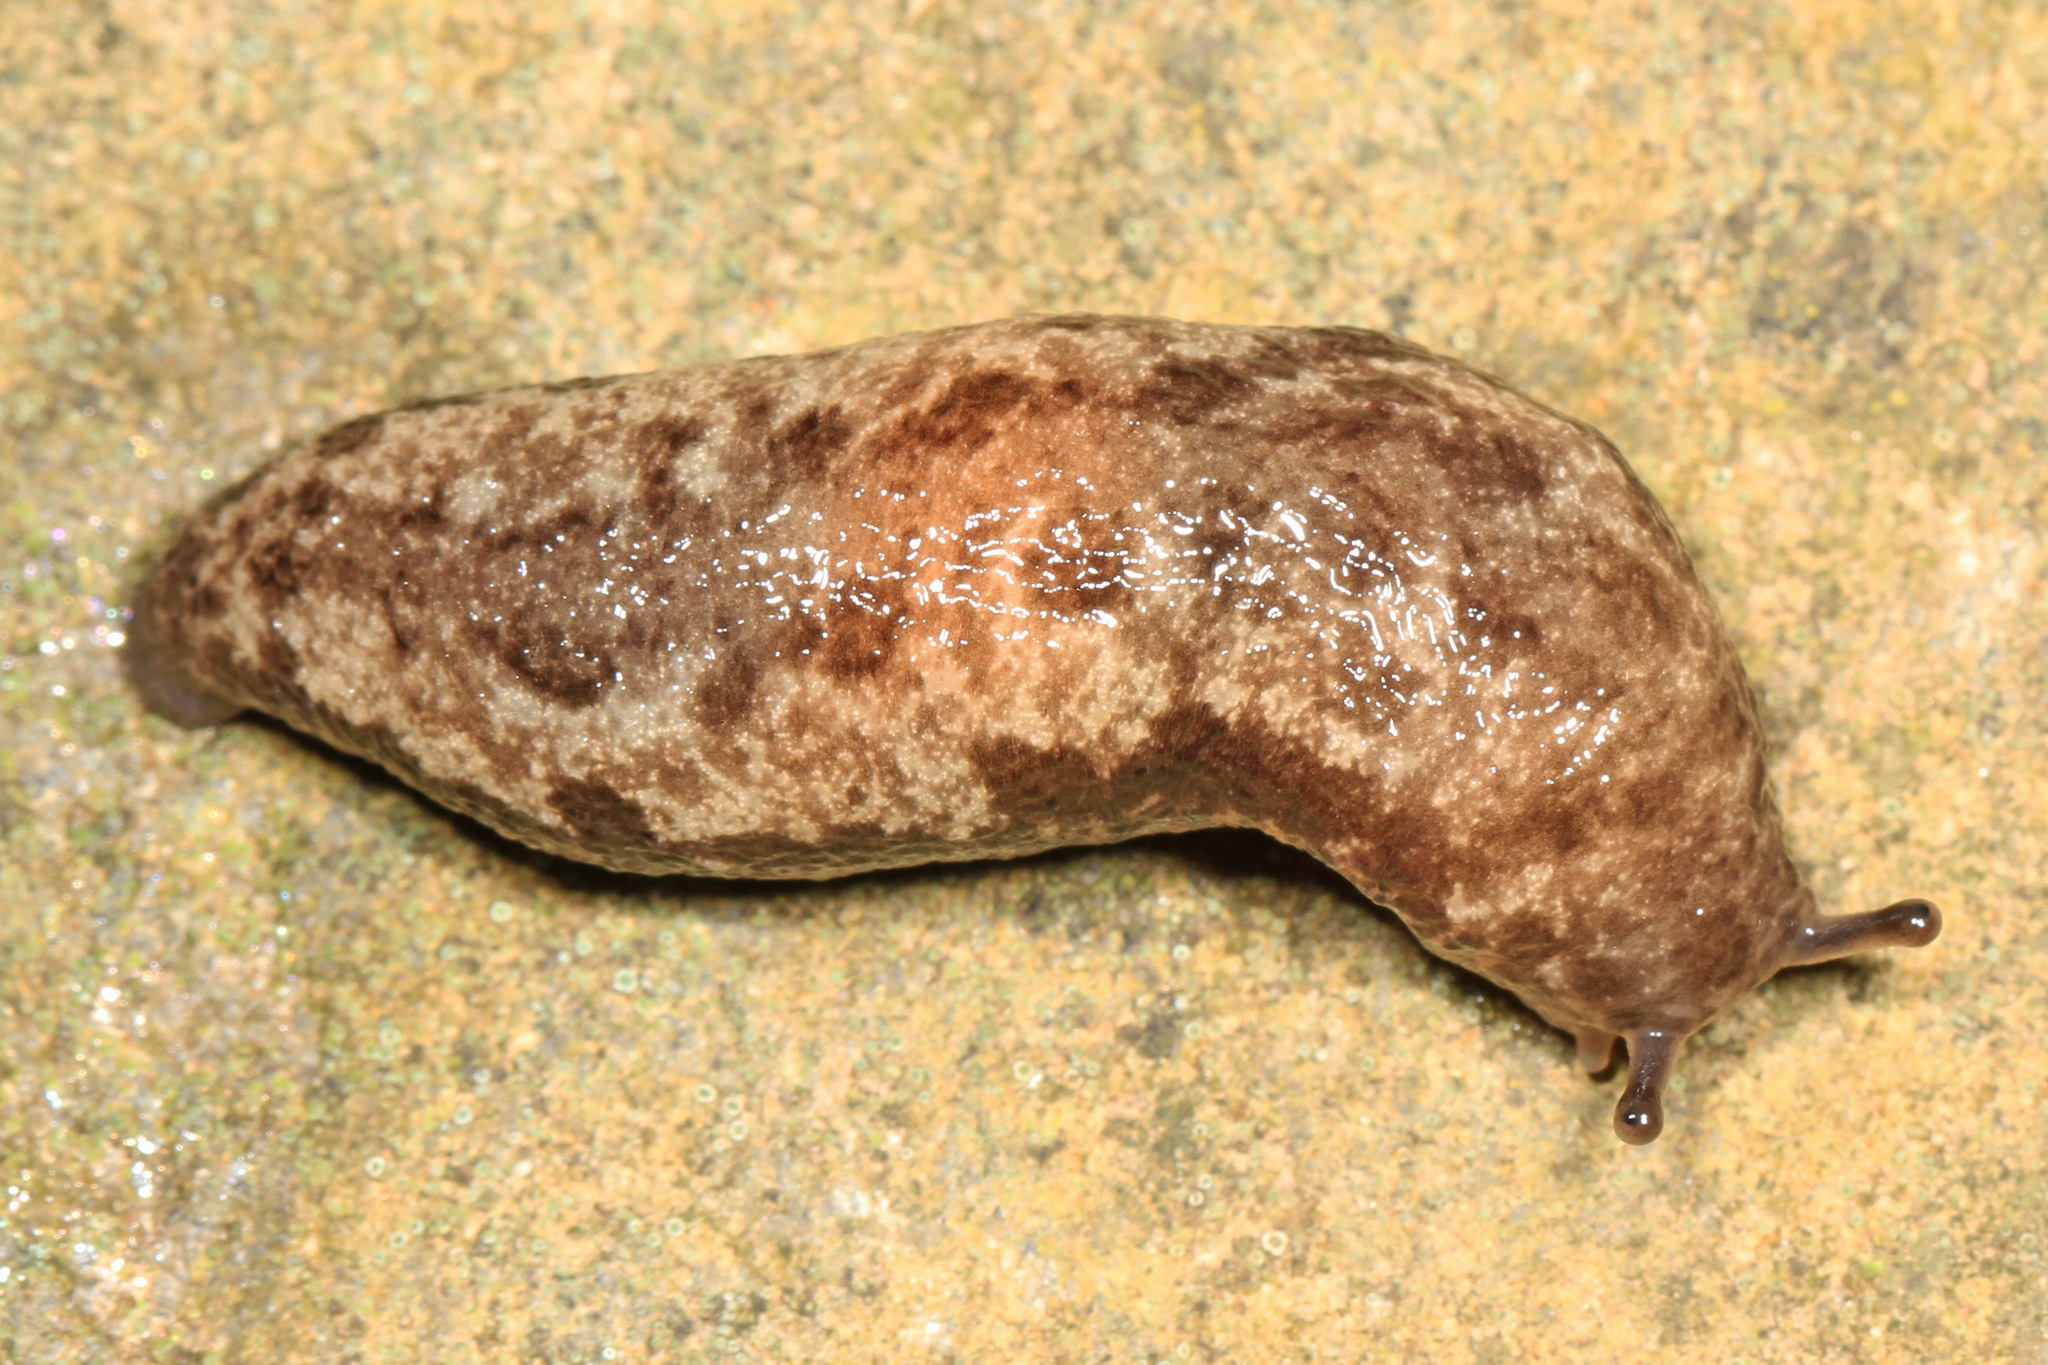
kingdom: Animalia
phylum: Mollusca
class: Gastropoda
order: Stylommatophora
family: Philomycidae
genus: Megapallifera
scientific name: Megapallifera mutabilis
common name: Changeable mantleslug
